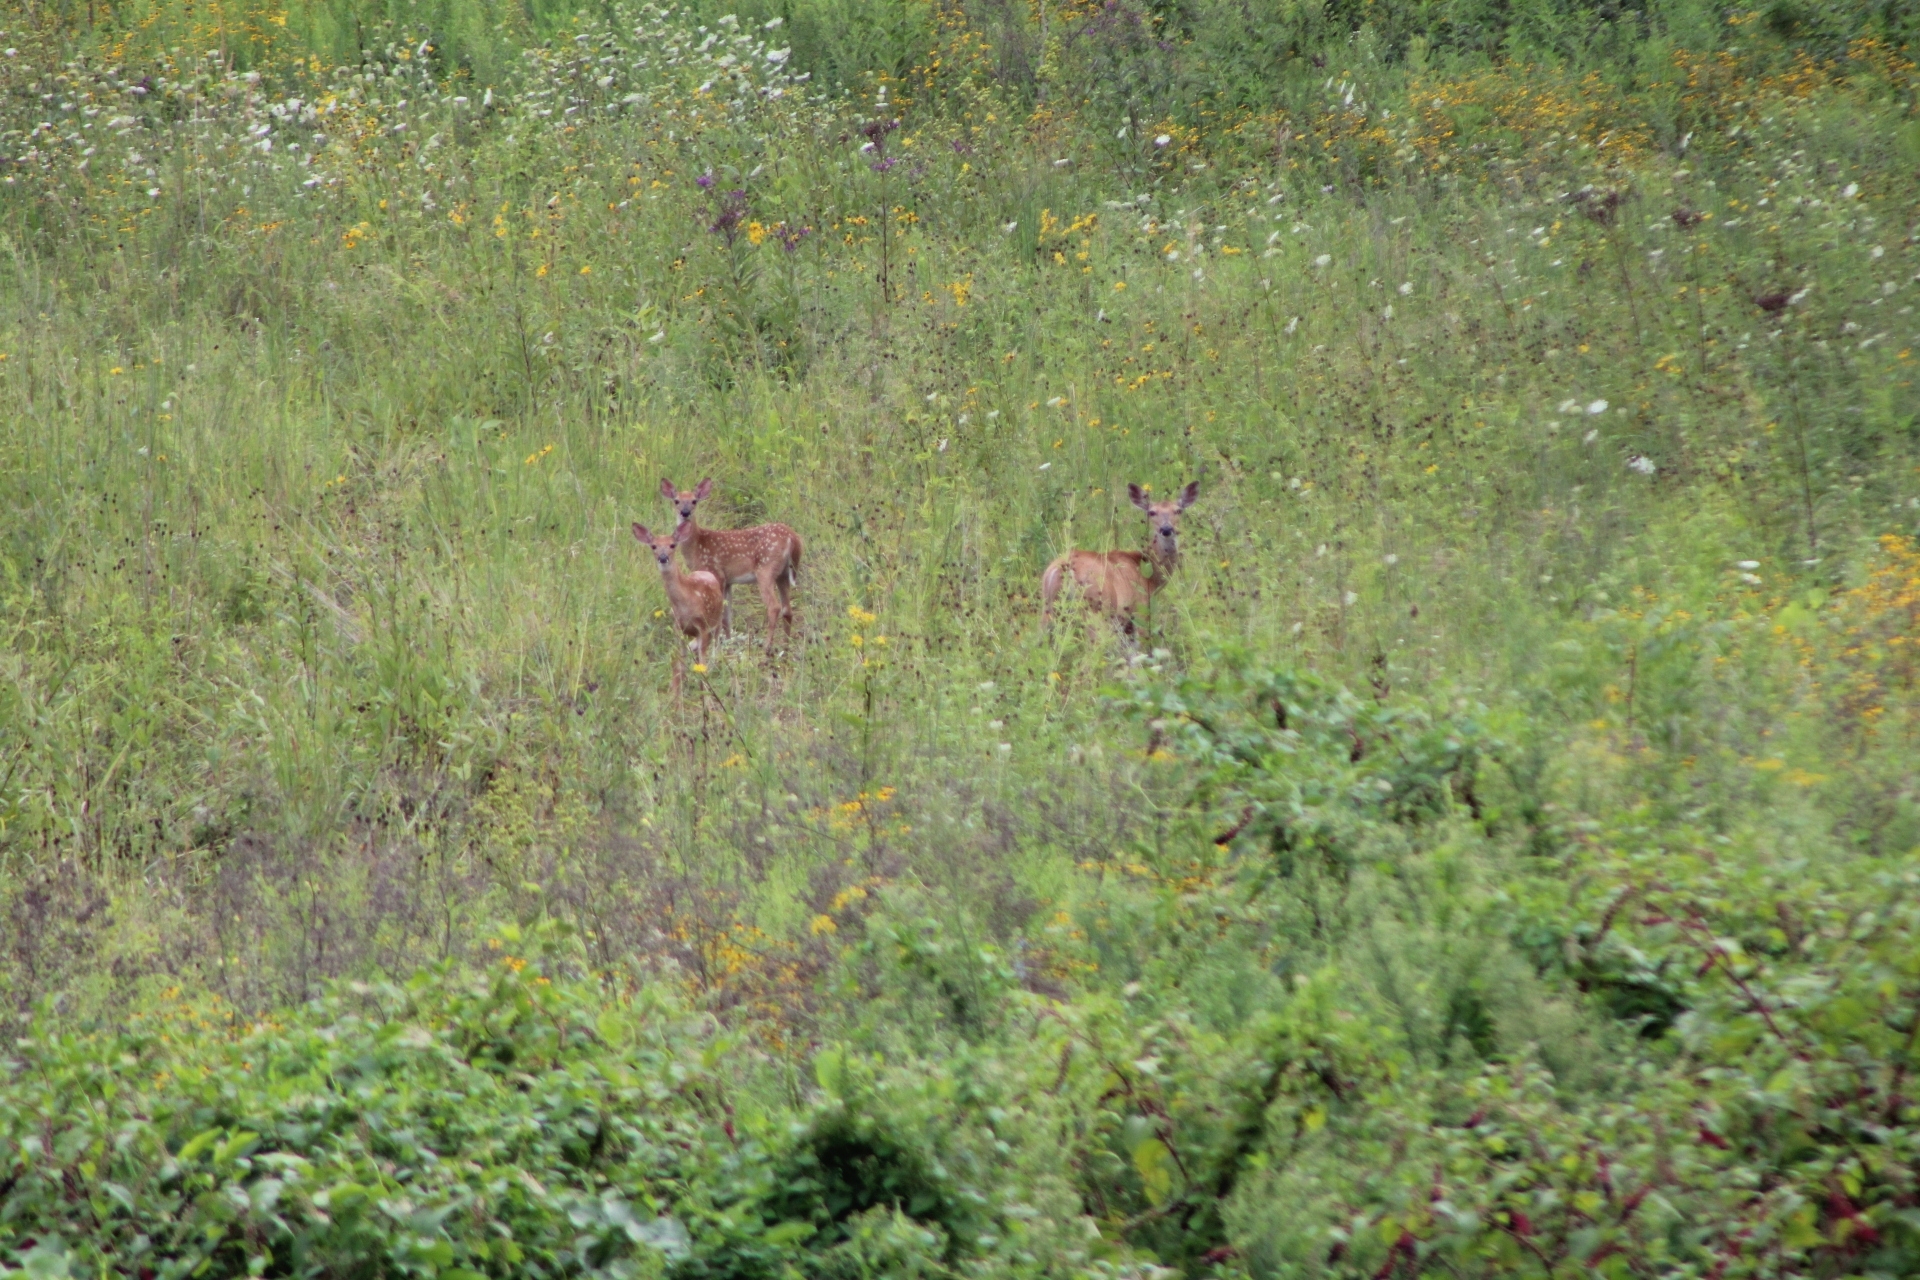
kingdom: Animalia
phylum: Chordata
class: Mammalia
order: Artiodactyla
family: Cervidae
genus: Odocoileus
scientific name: Odocoileus virginianus
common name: White-tailed deer
